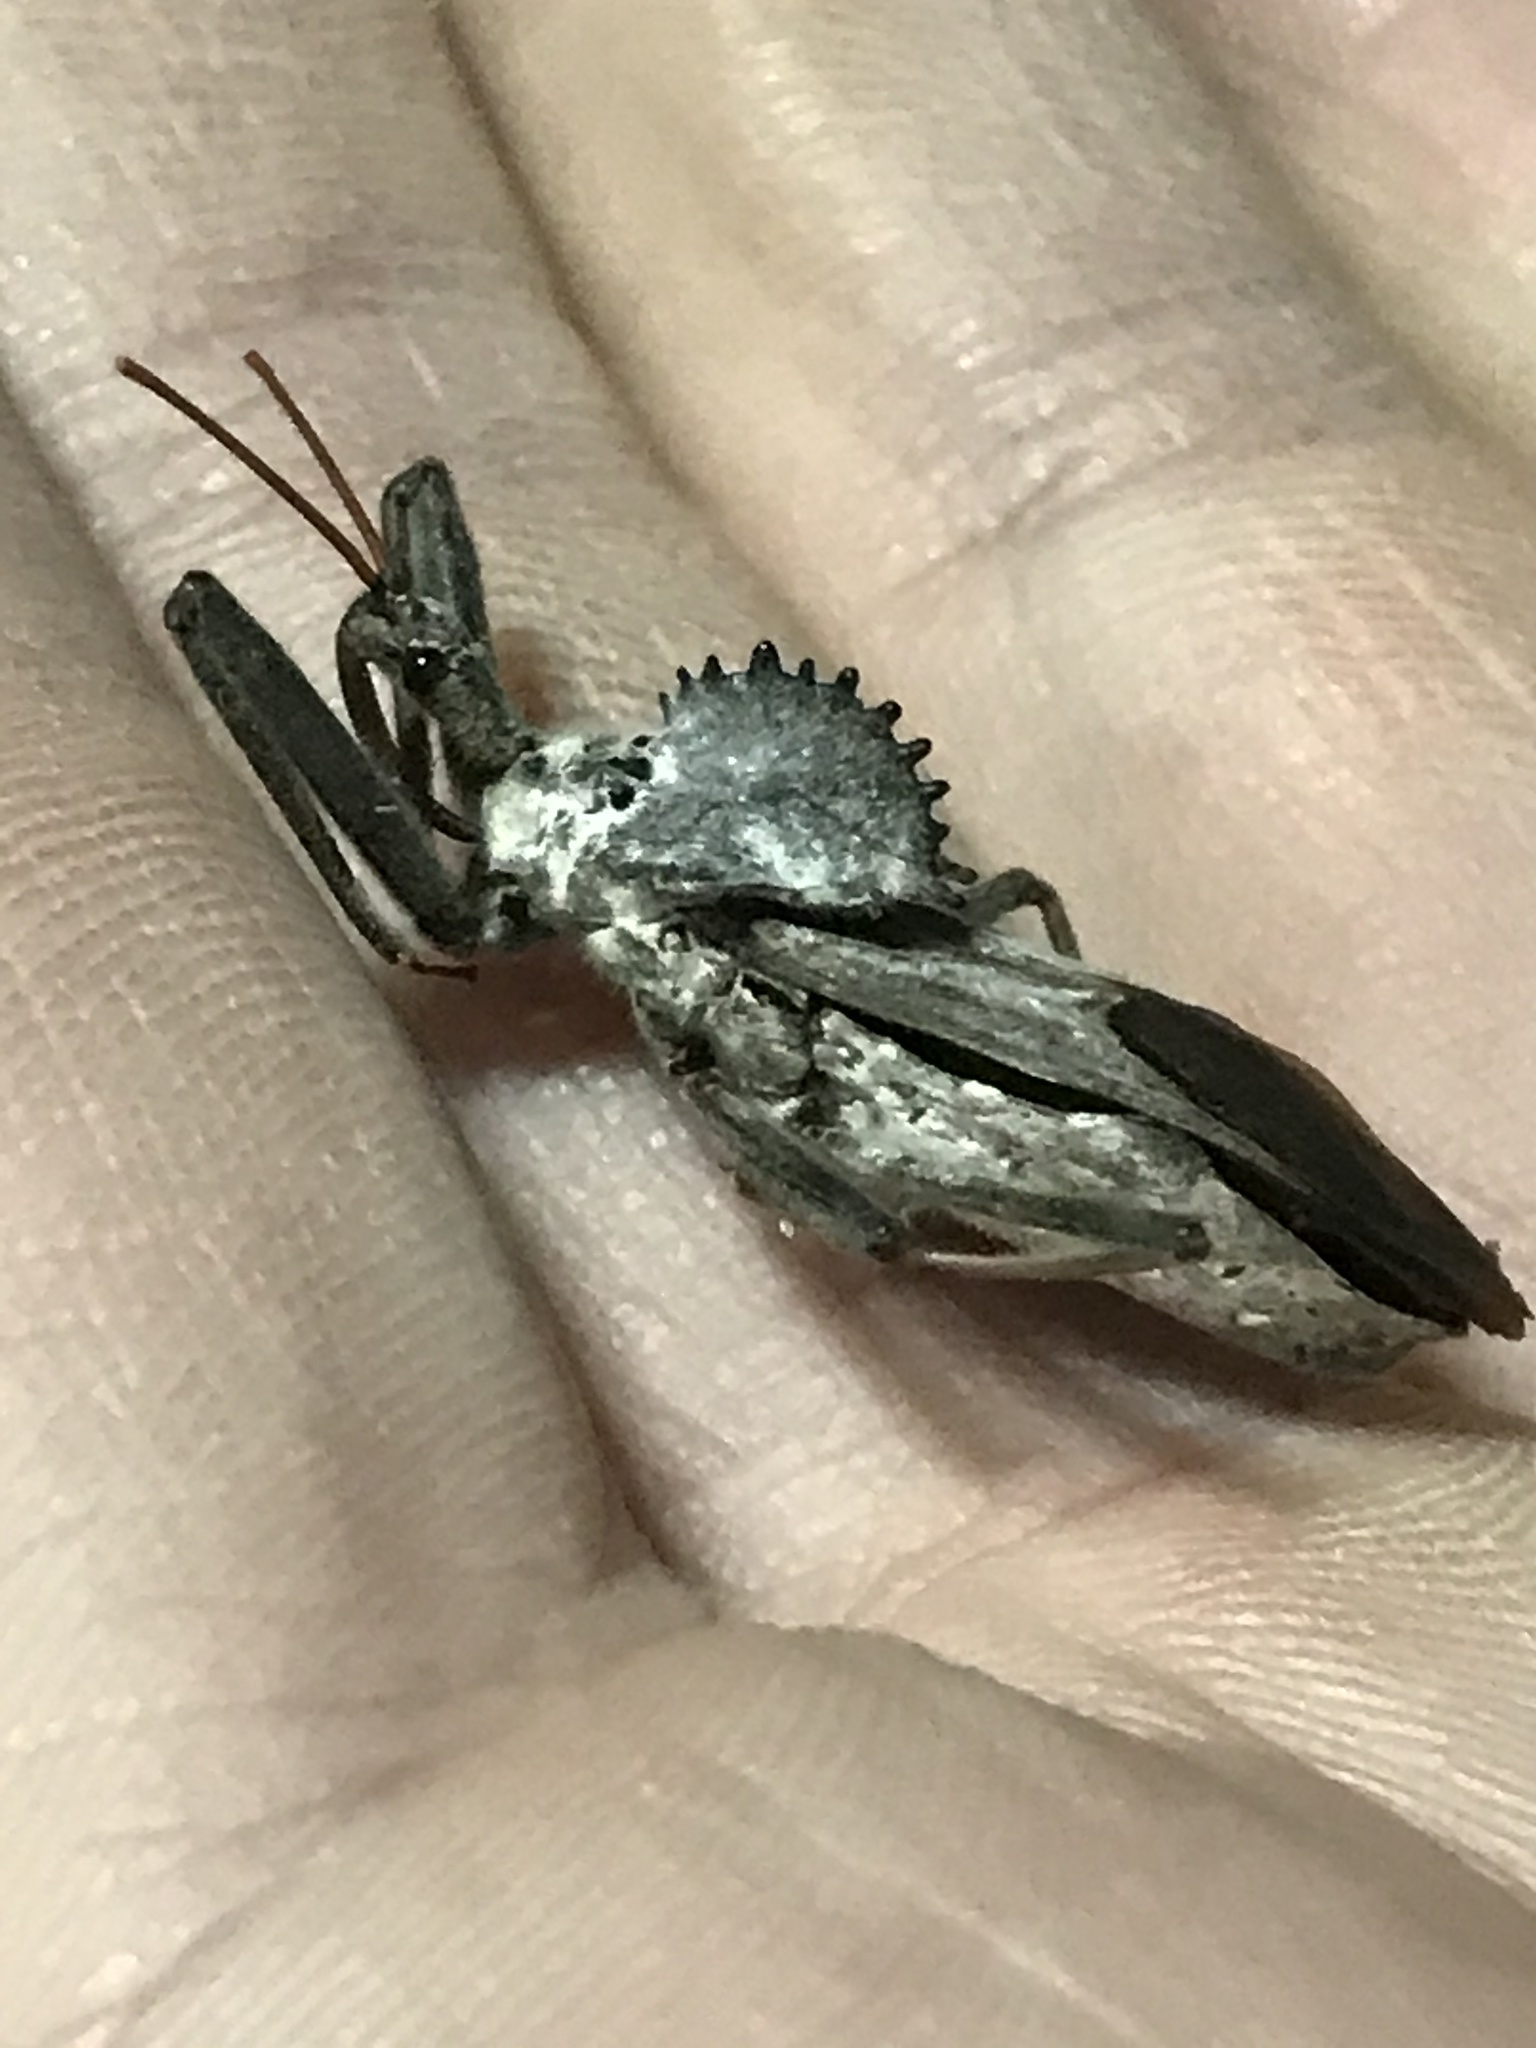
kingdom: Animalia
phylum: Arthropoda
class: Insecta
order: Hemiptera
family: Reduviidae
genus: Arilus
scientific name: Arilus cristatus
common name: North american wheel bug
